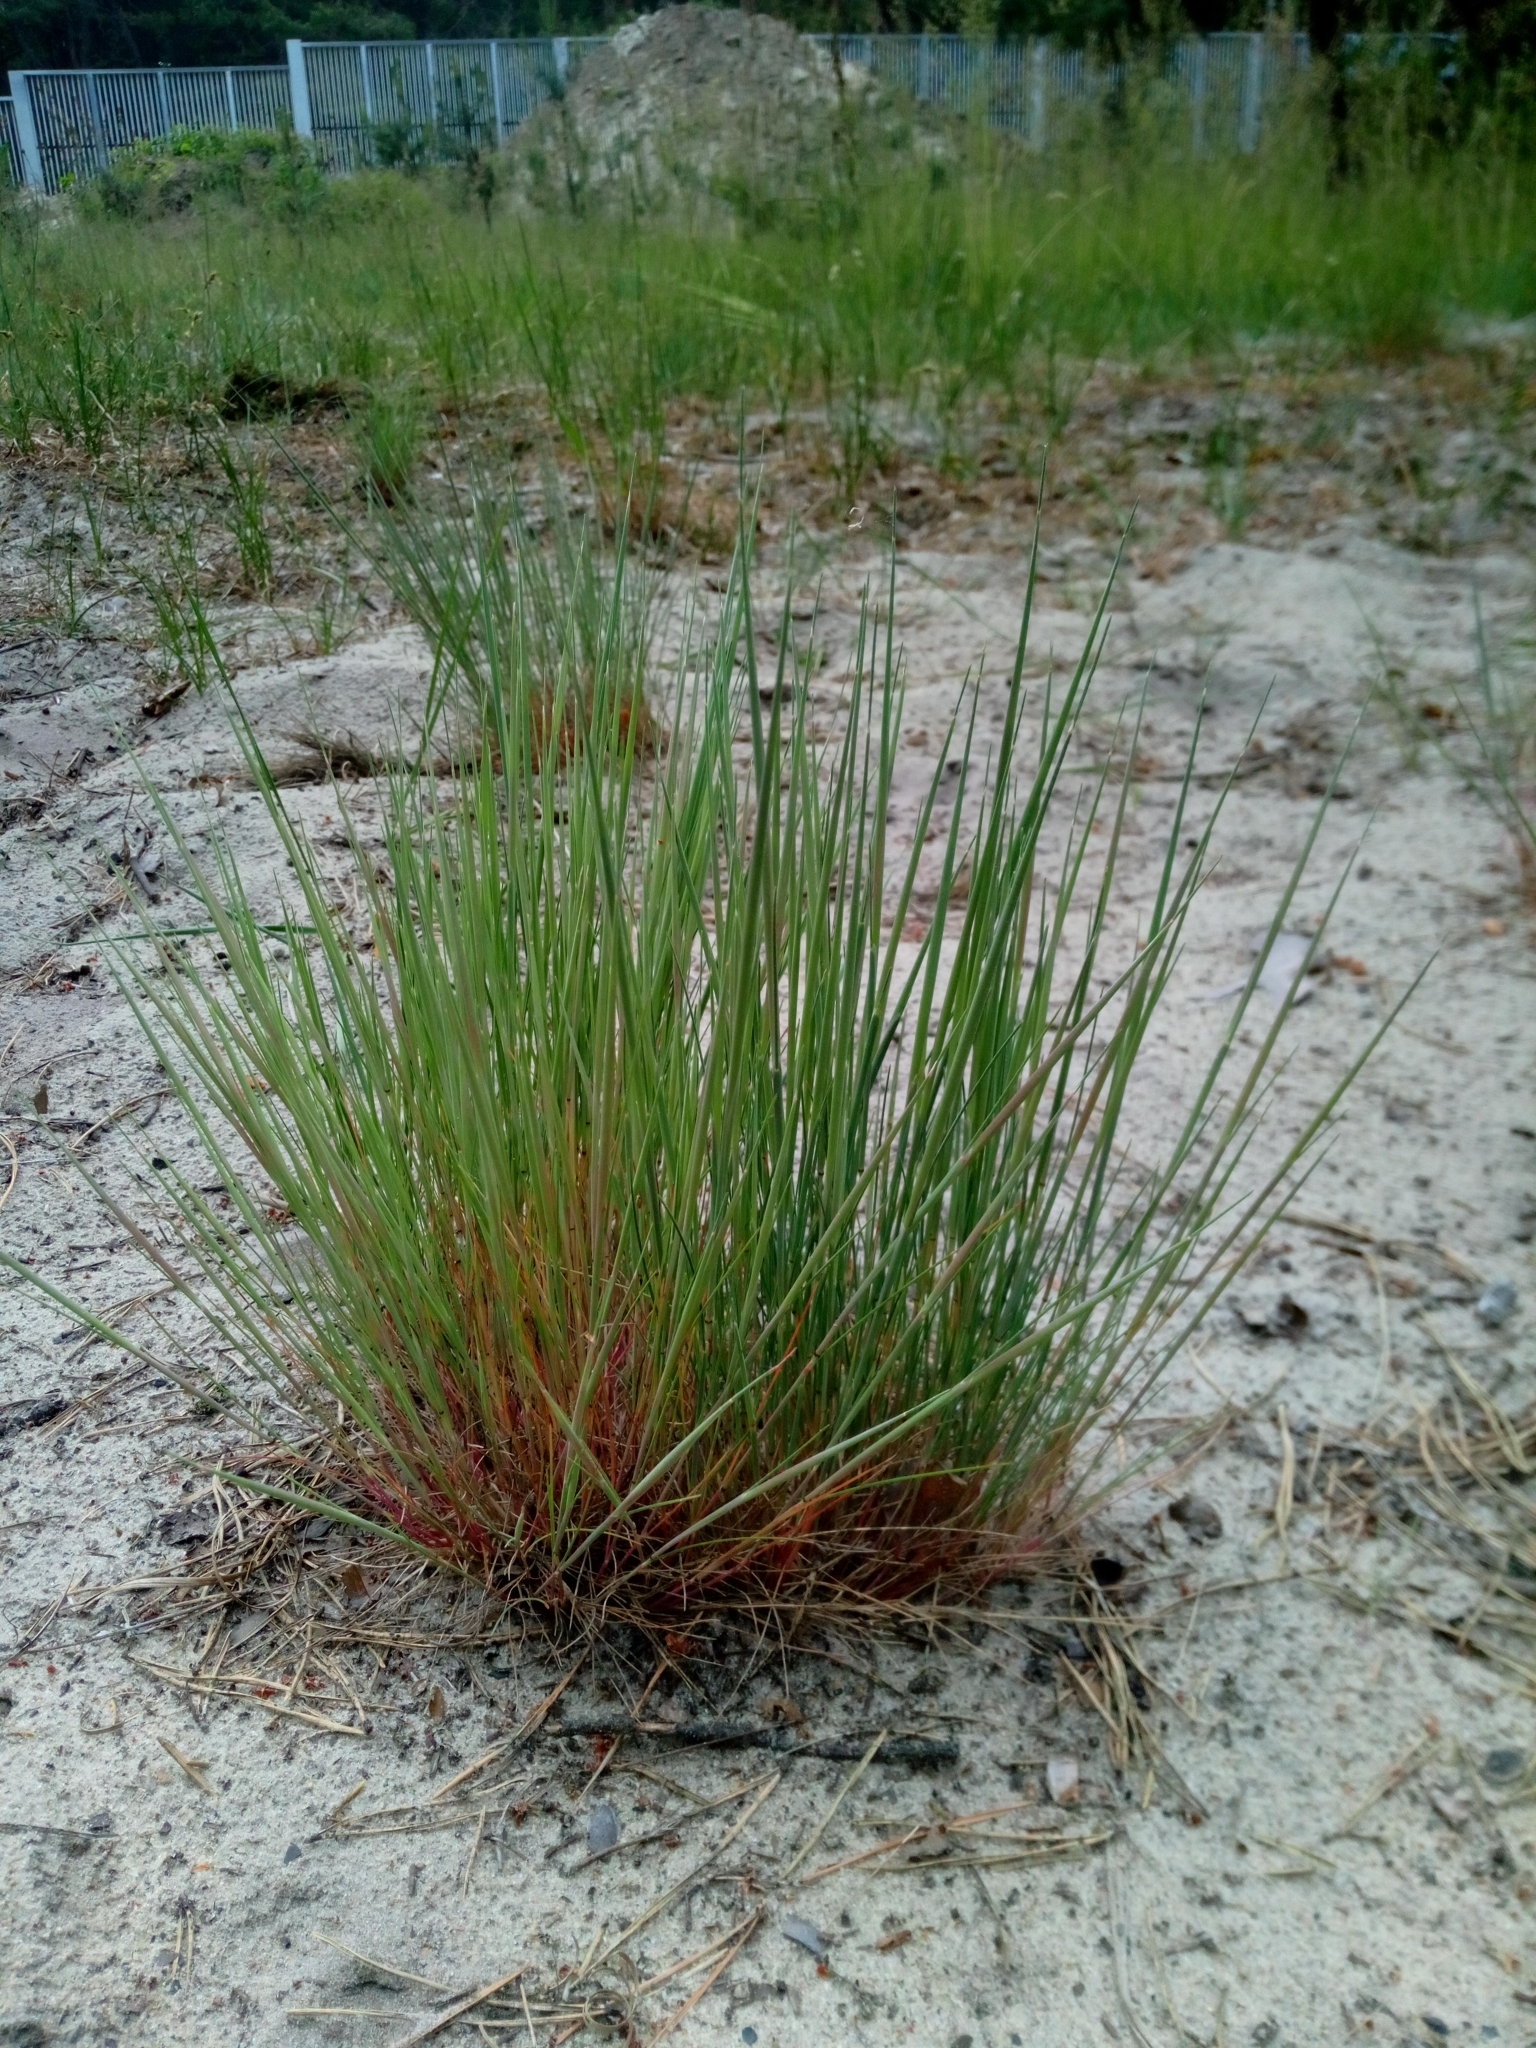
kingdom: Plantae
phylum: Tracheophyta
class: Liliopsida
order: Poales
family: Poaceae
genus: Corynephorus
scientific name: Corynephorus canescens
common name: Grey hair-grass
